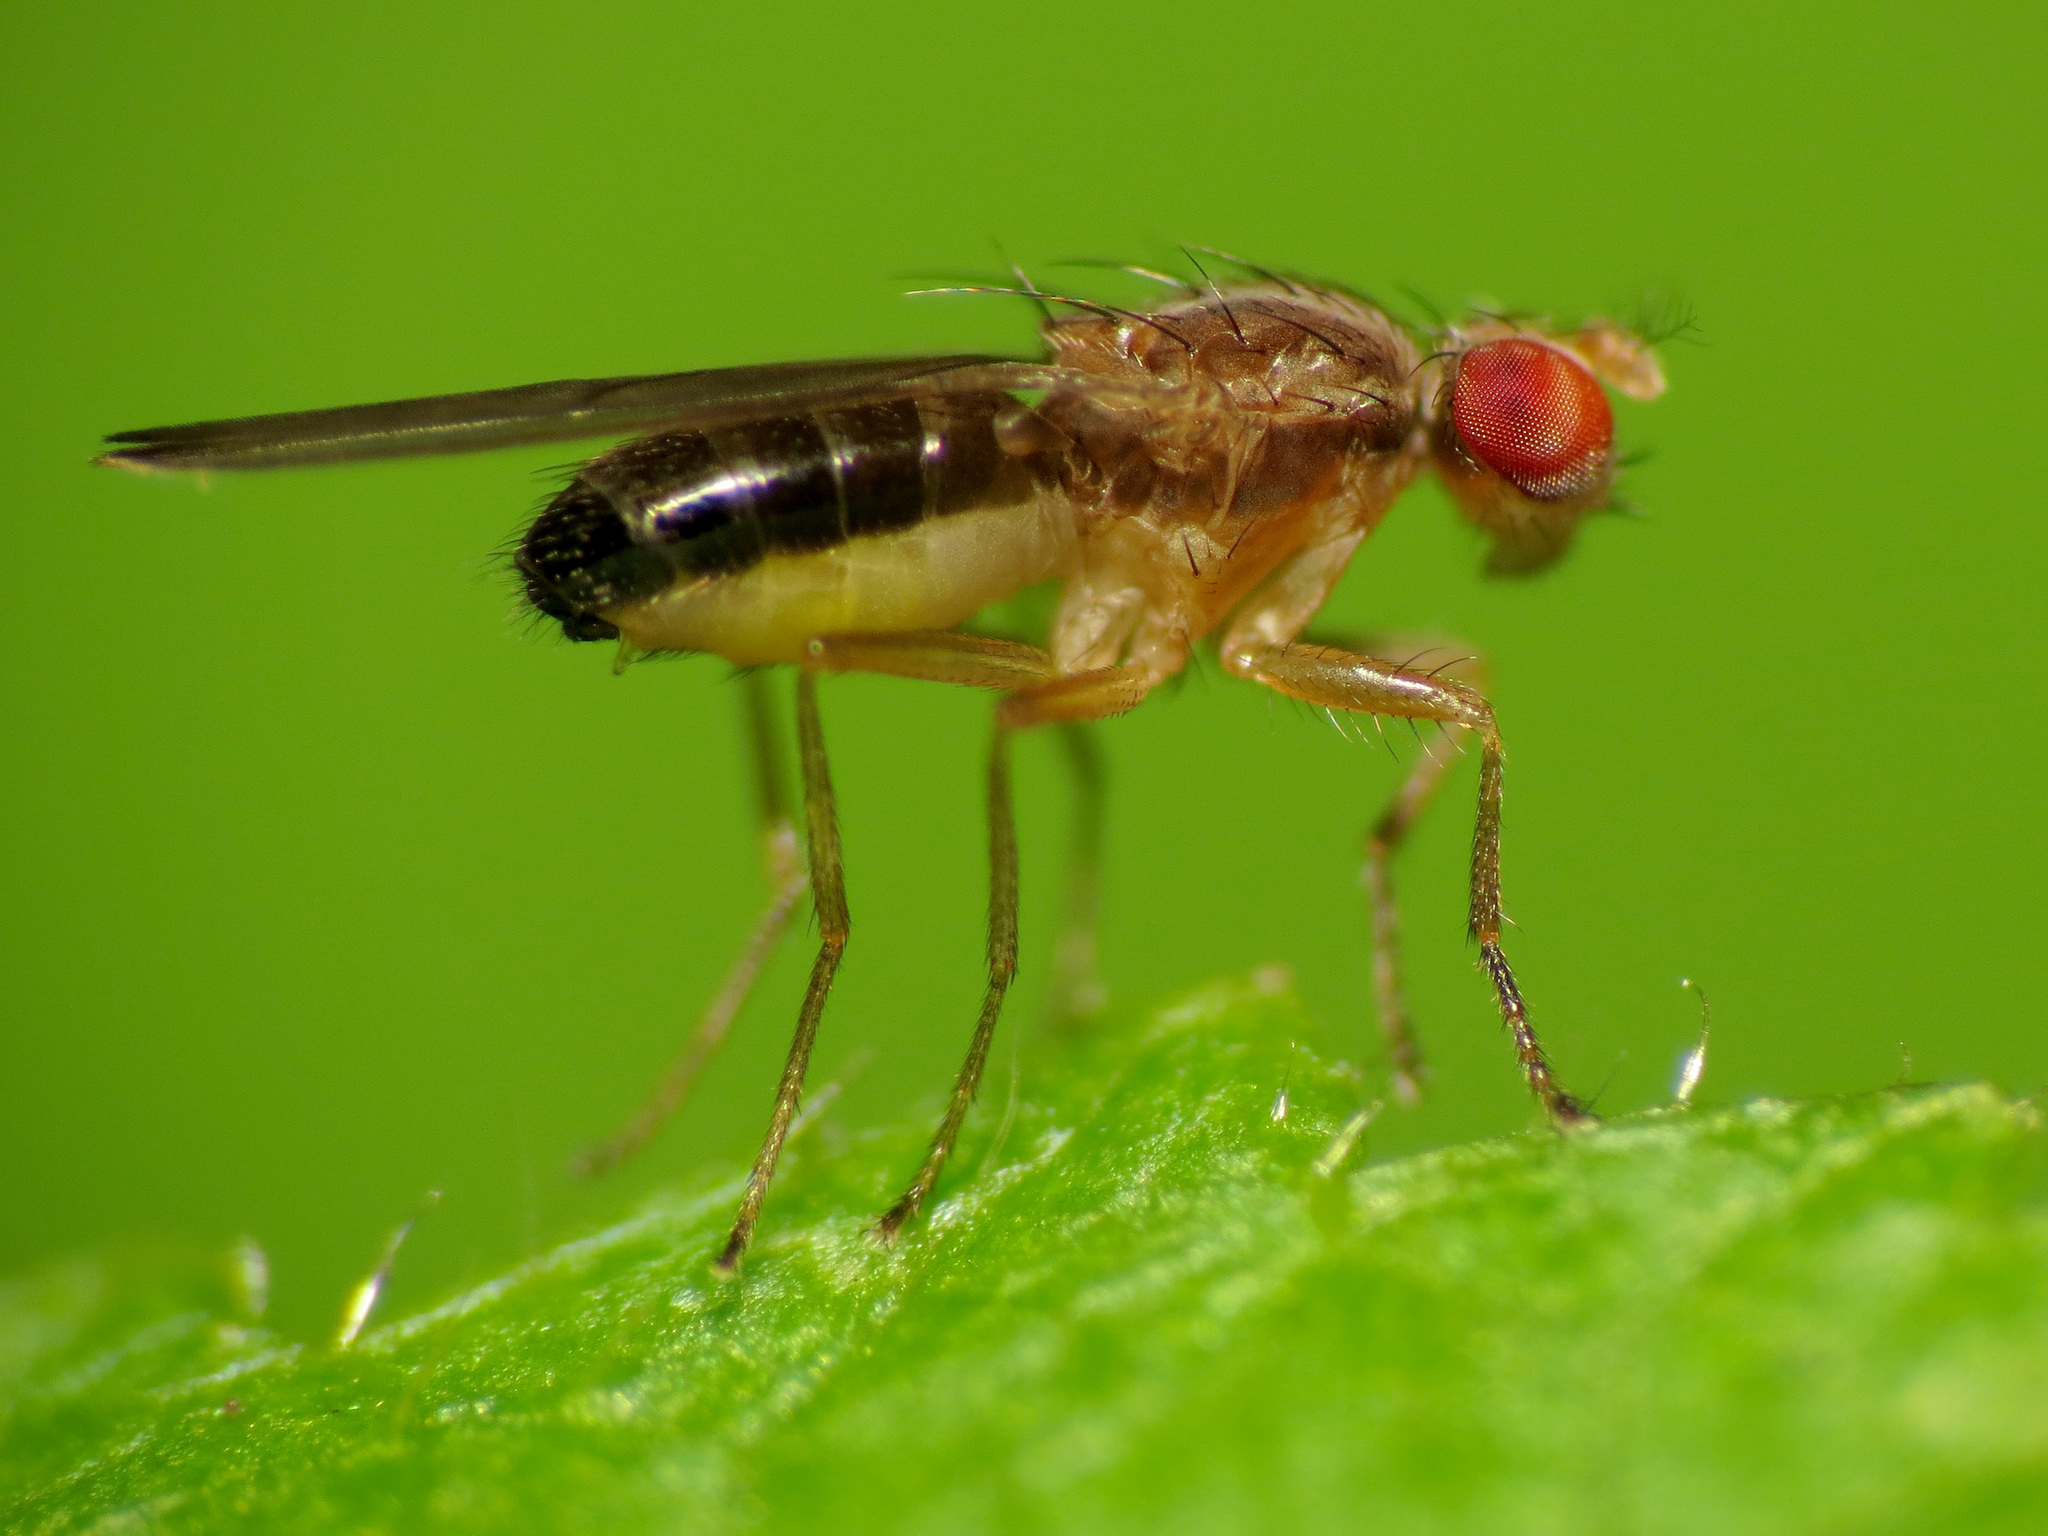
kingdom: Animalia
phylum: Arthropoda
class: Insecta
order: Diptera
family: Drosophilidae
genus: Scaptomyza
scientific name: Scaptomyza adusta
